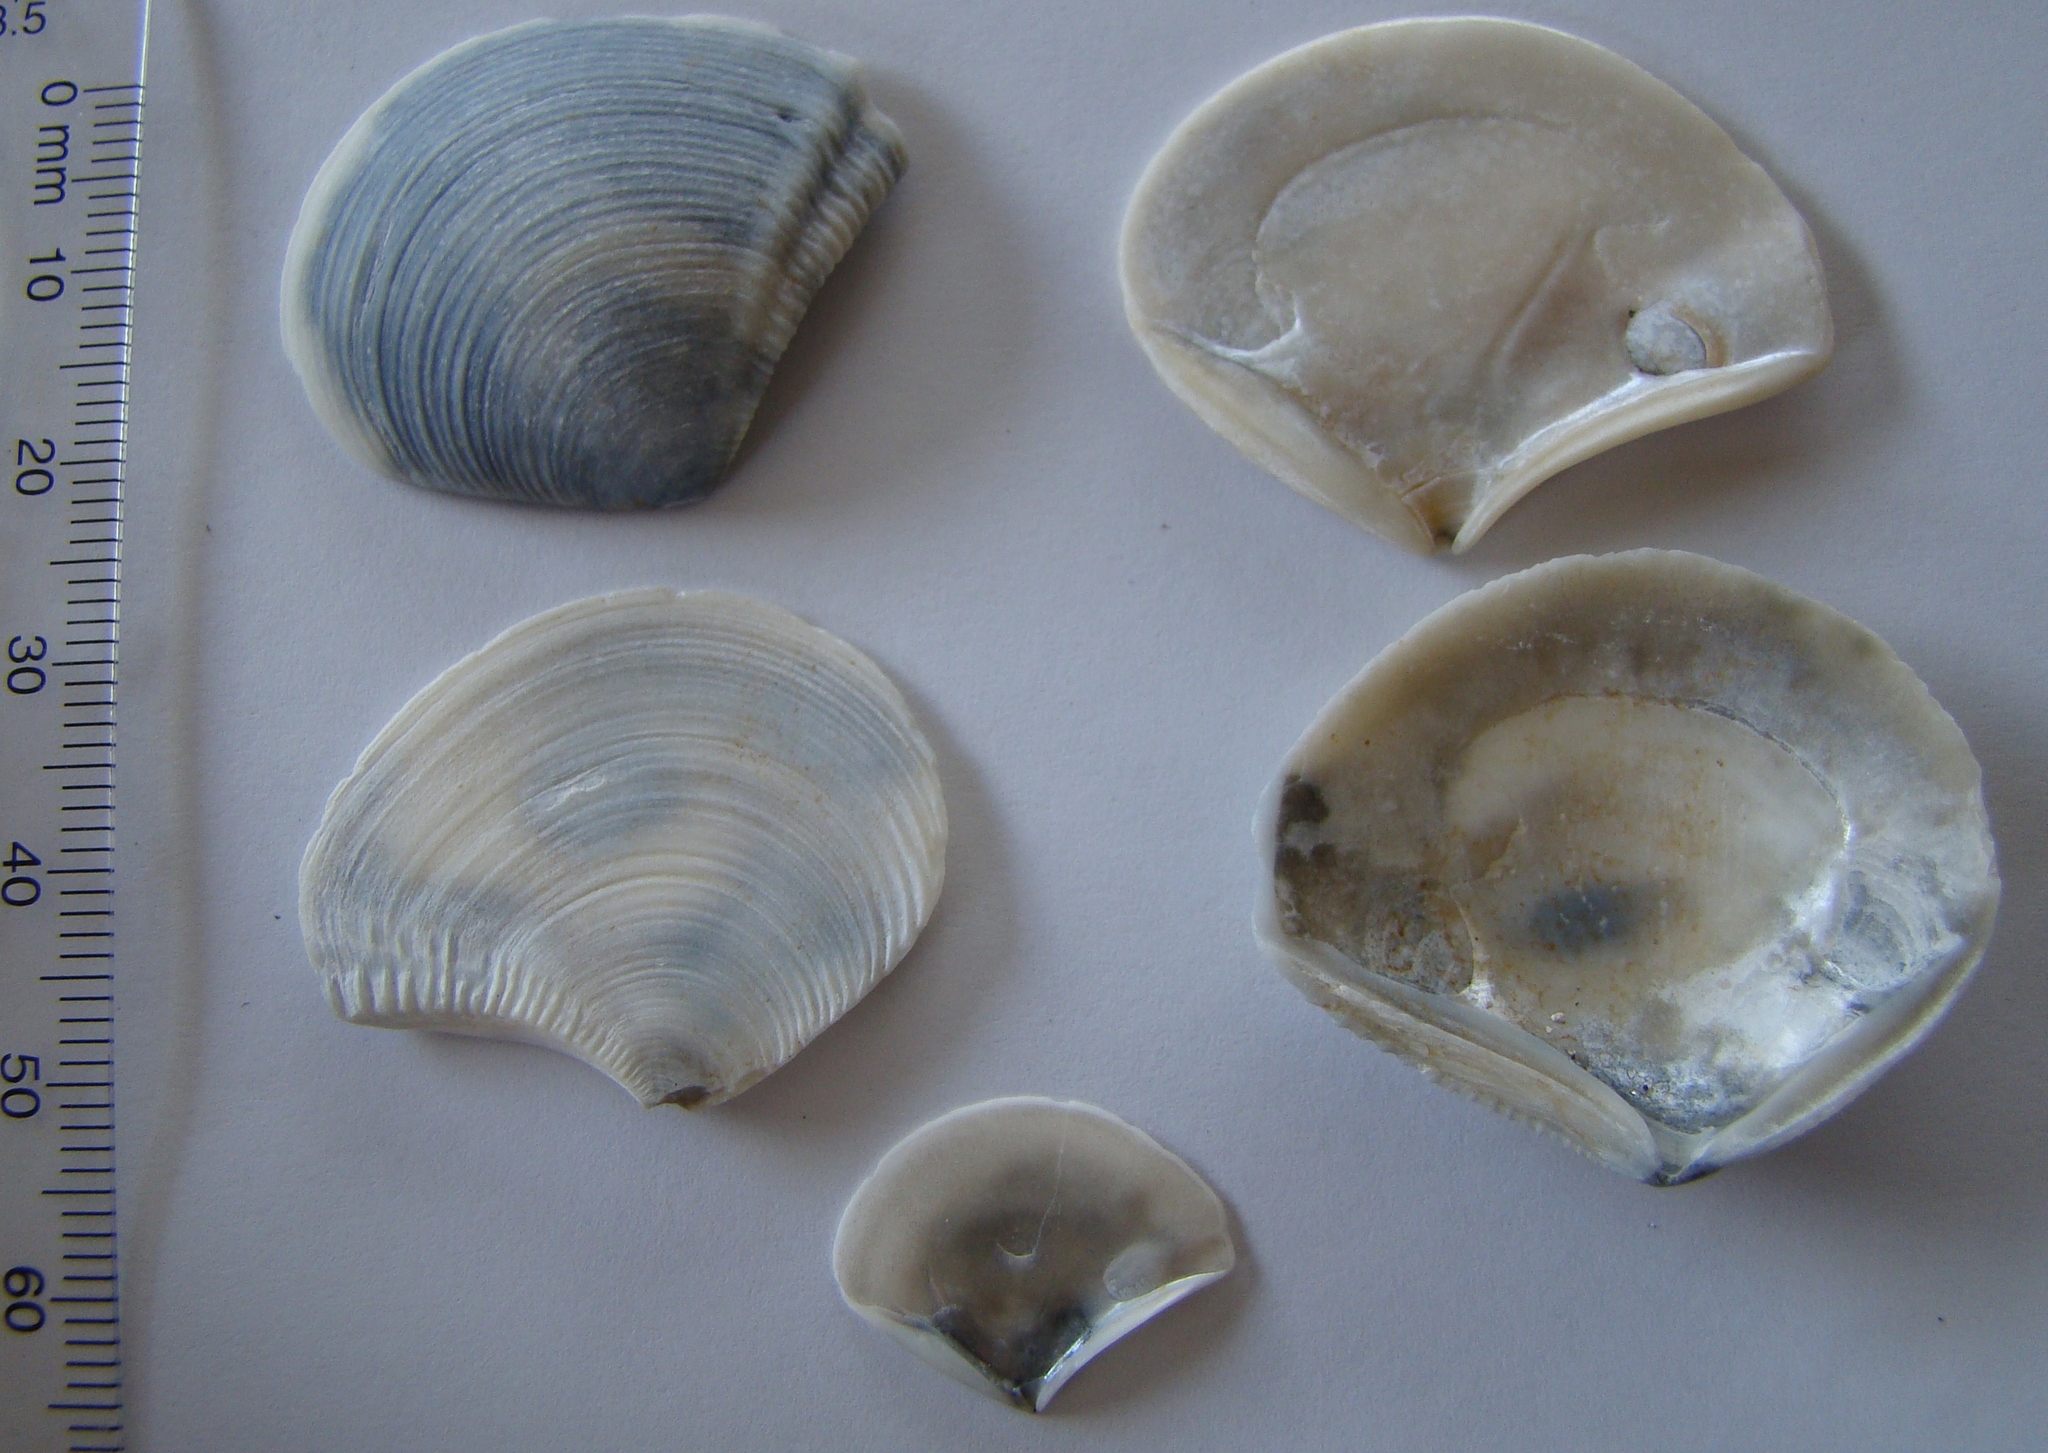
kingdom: Animalia
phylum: Mollusca
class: Bivalvia
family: Myochamidae
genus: Myadora
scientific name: Myadora striata
